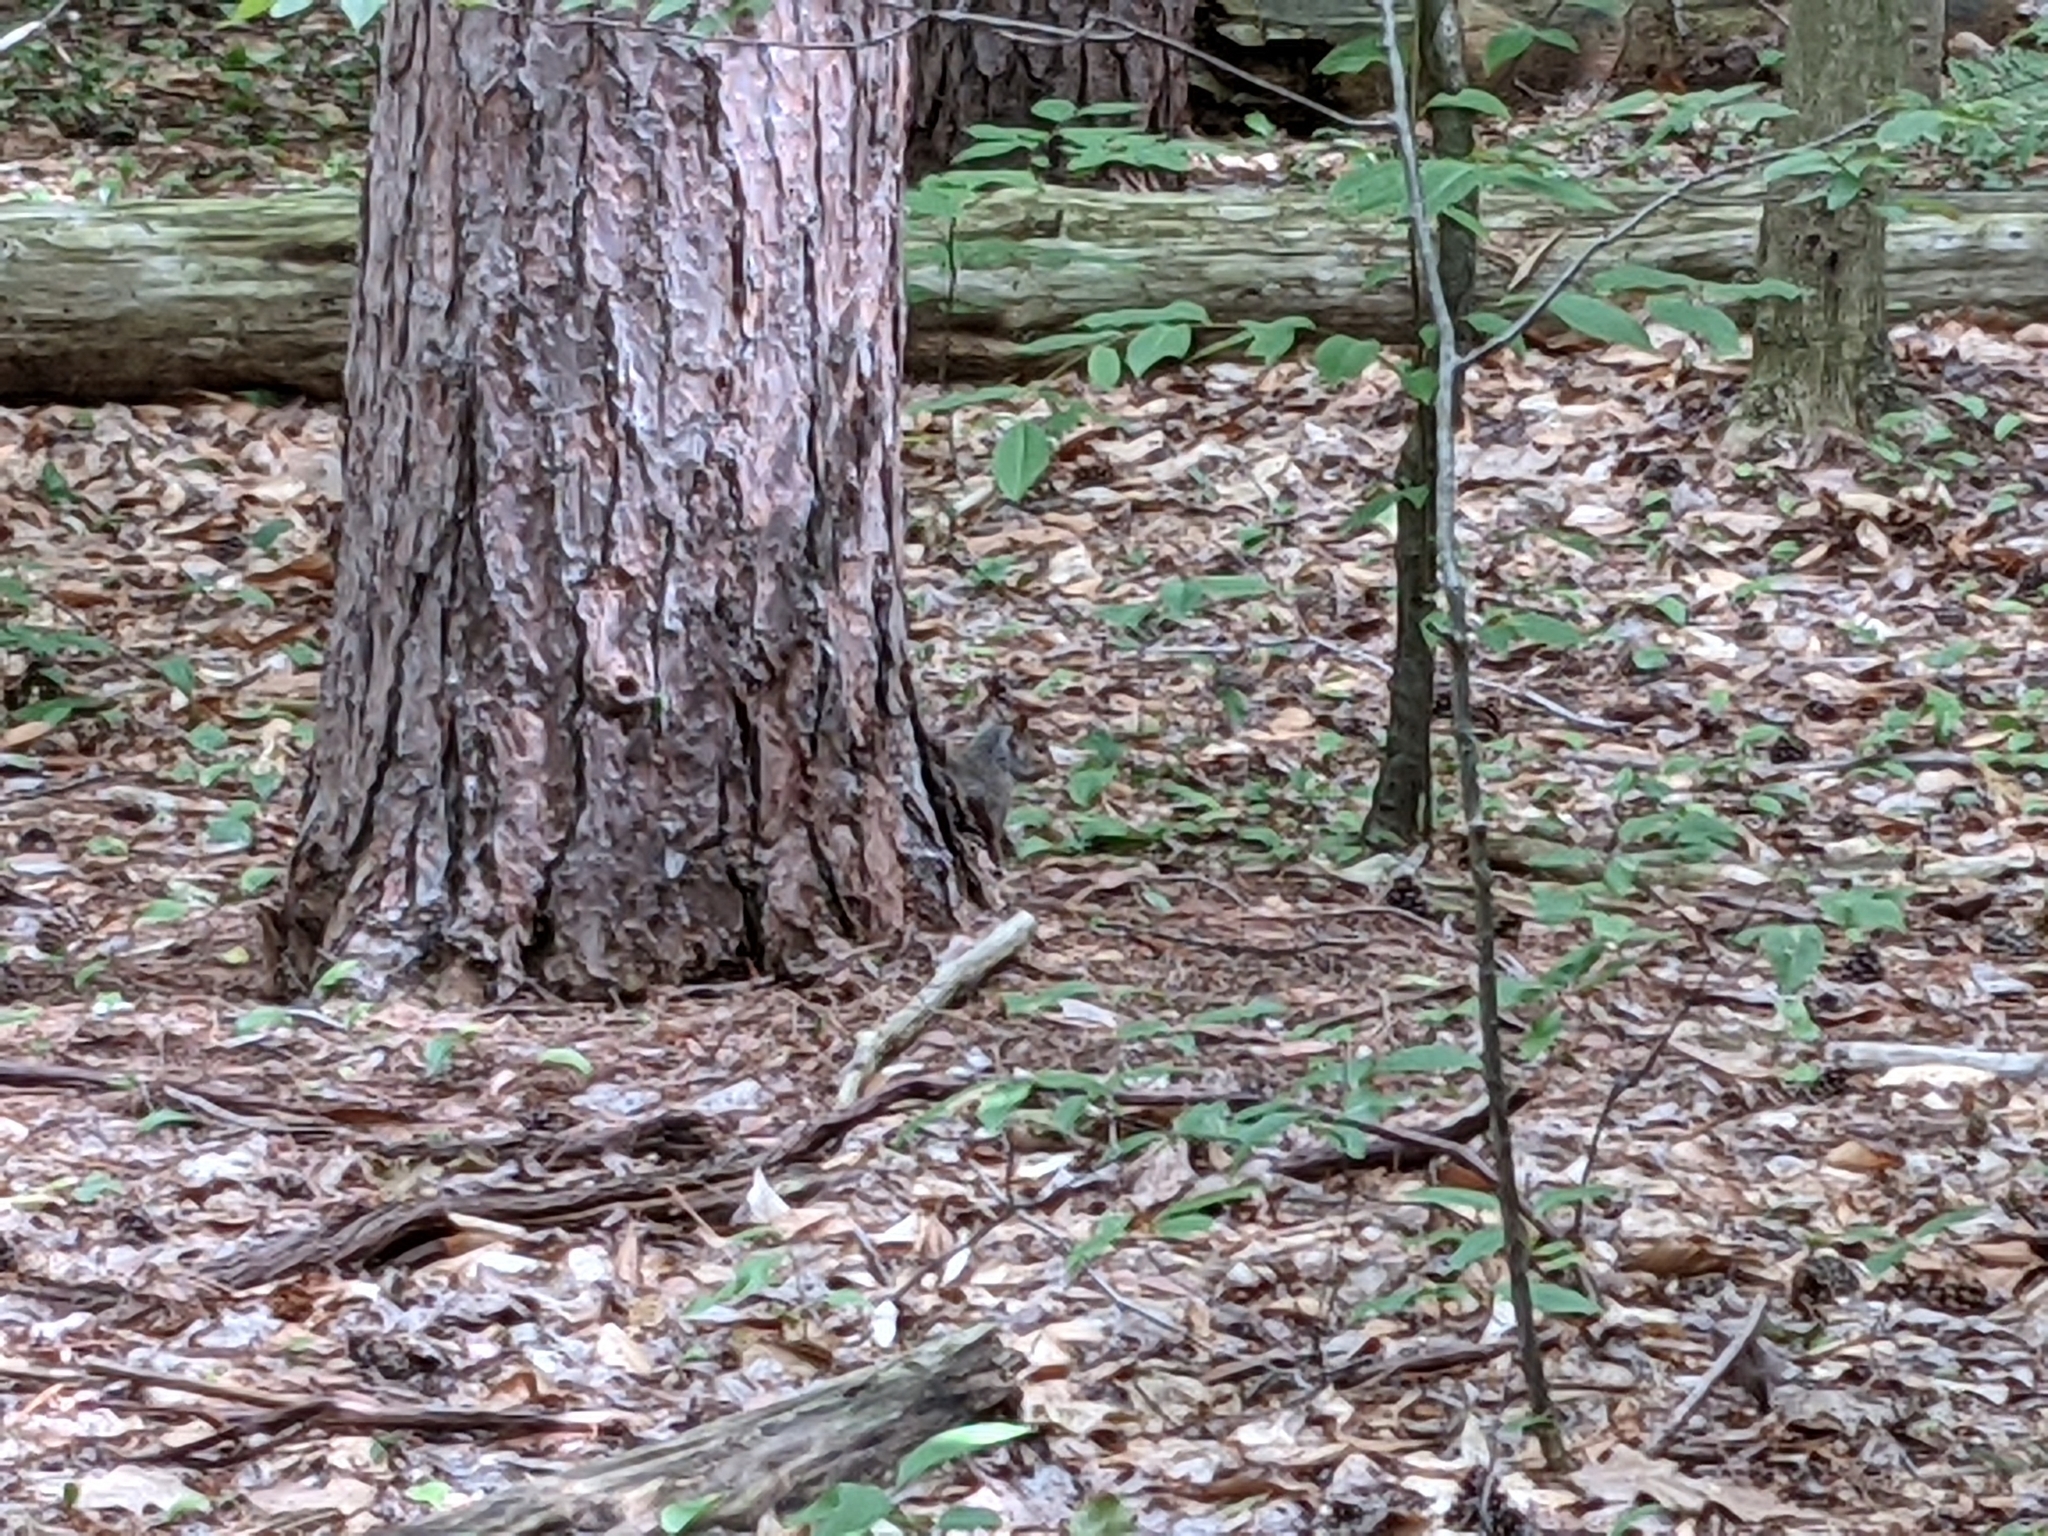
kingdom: Animalia
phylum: Chordata
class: Mammalia
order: Rodentia
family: Sciuridae
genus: Sciurus
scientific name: Sciurus carolinensis
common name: Eastern gray squirrel
